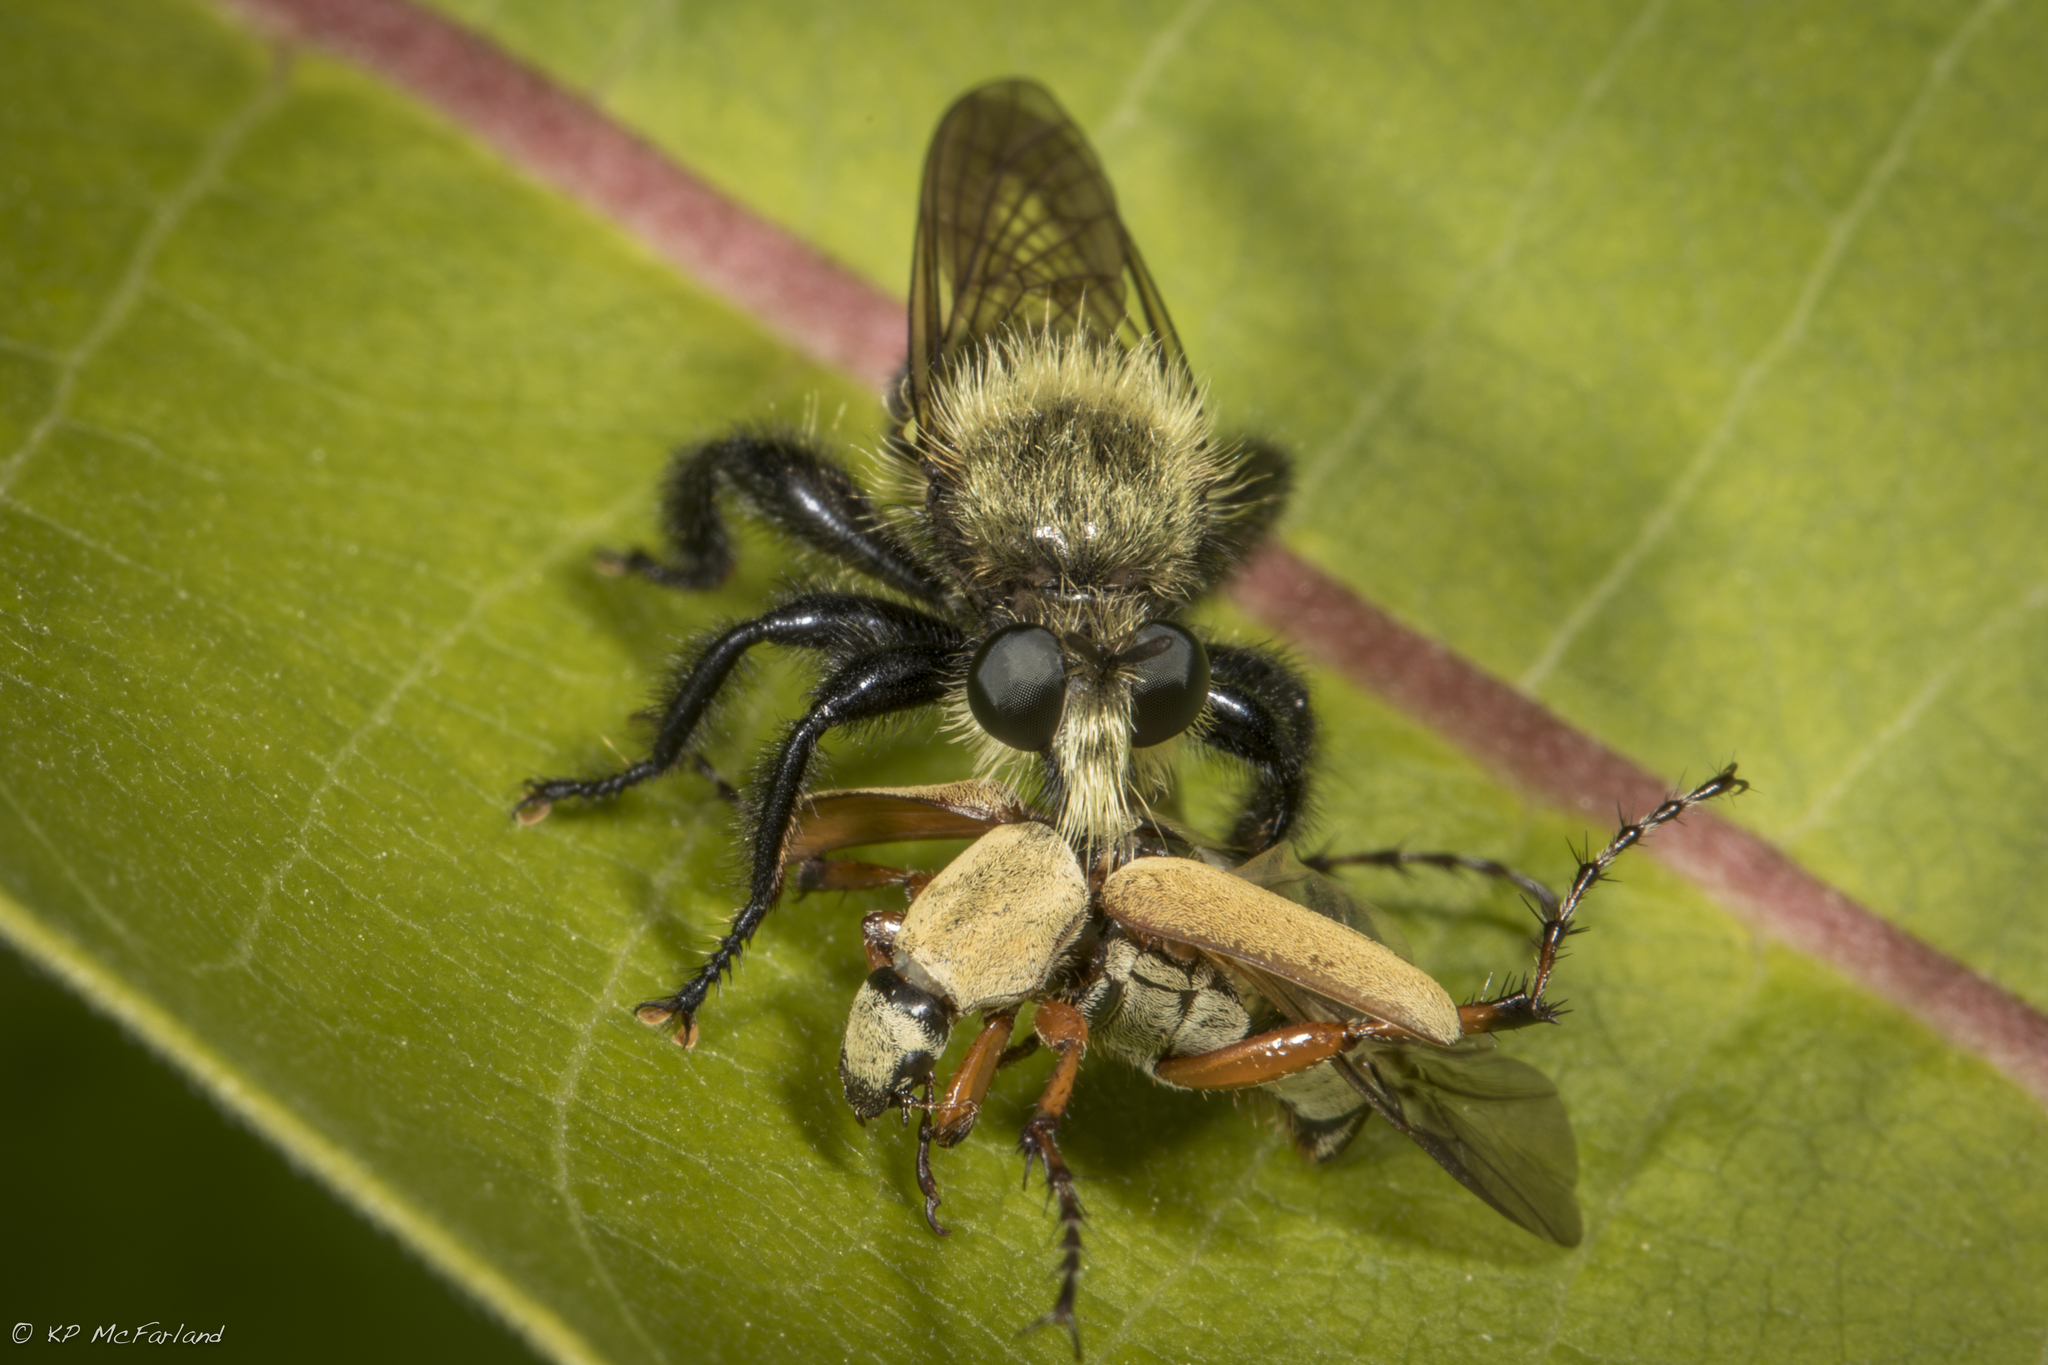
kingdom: Animalia
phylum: Arthropoda
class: Insecta
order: Diptera
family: Asilidae
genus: Laphria
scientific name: Laphria
